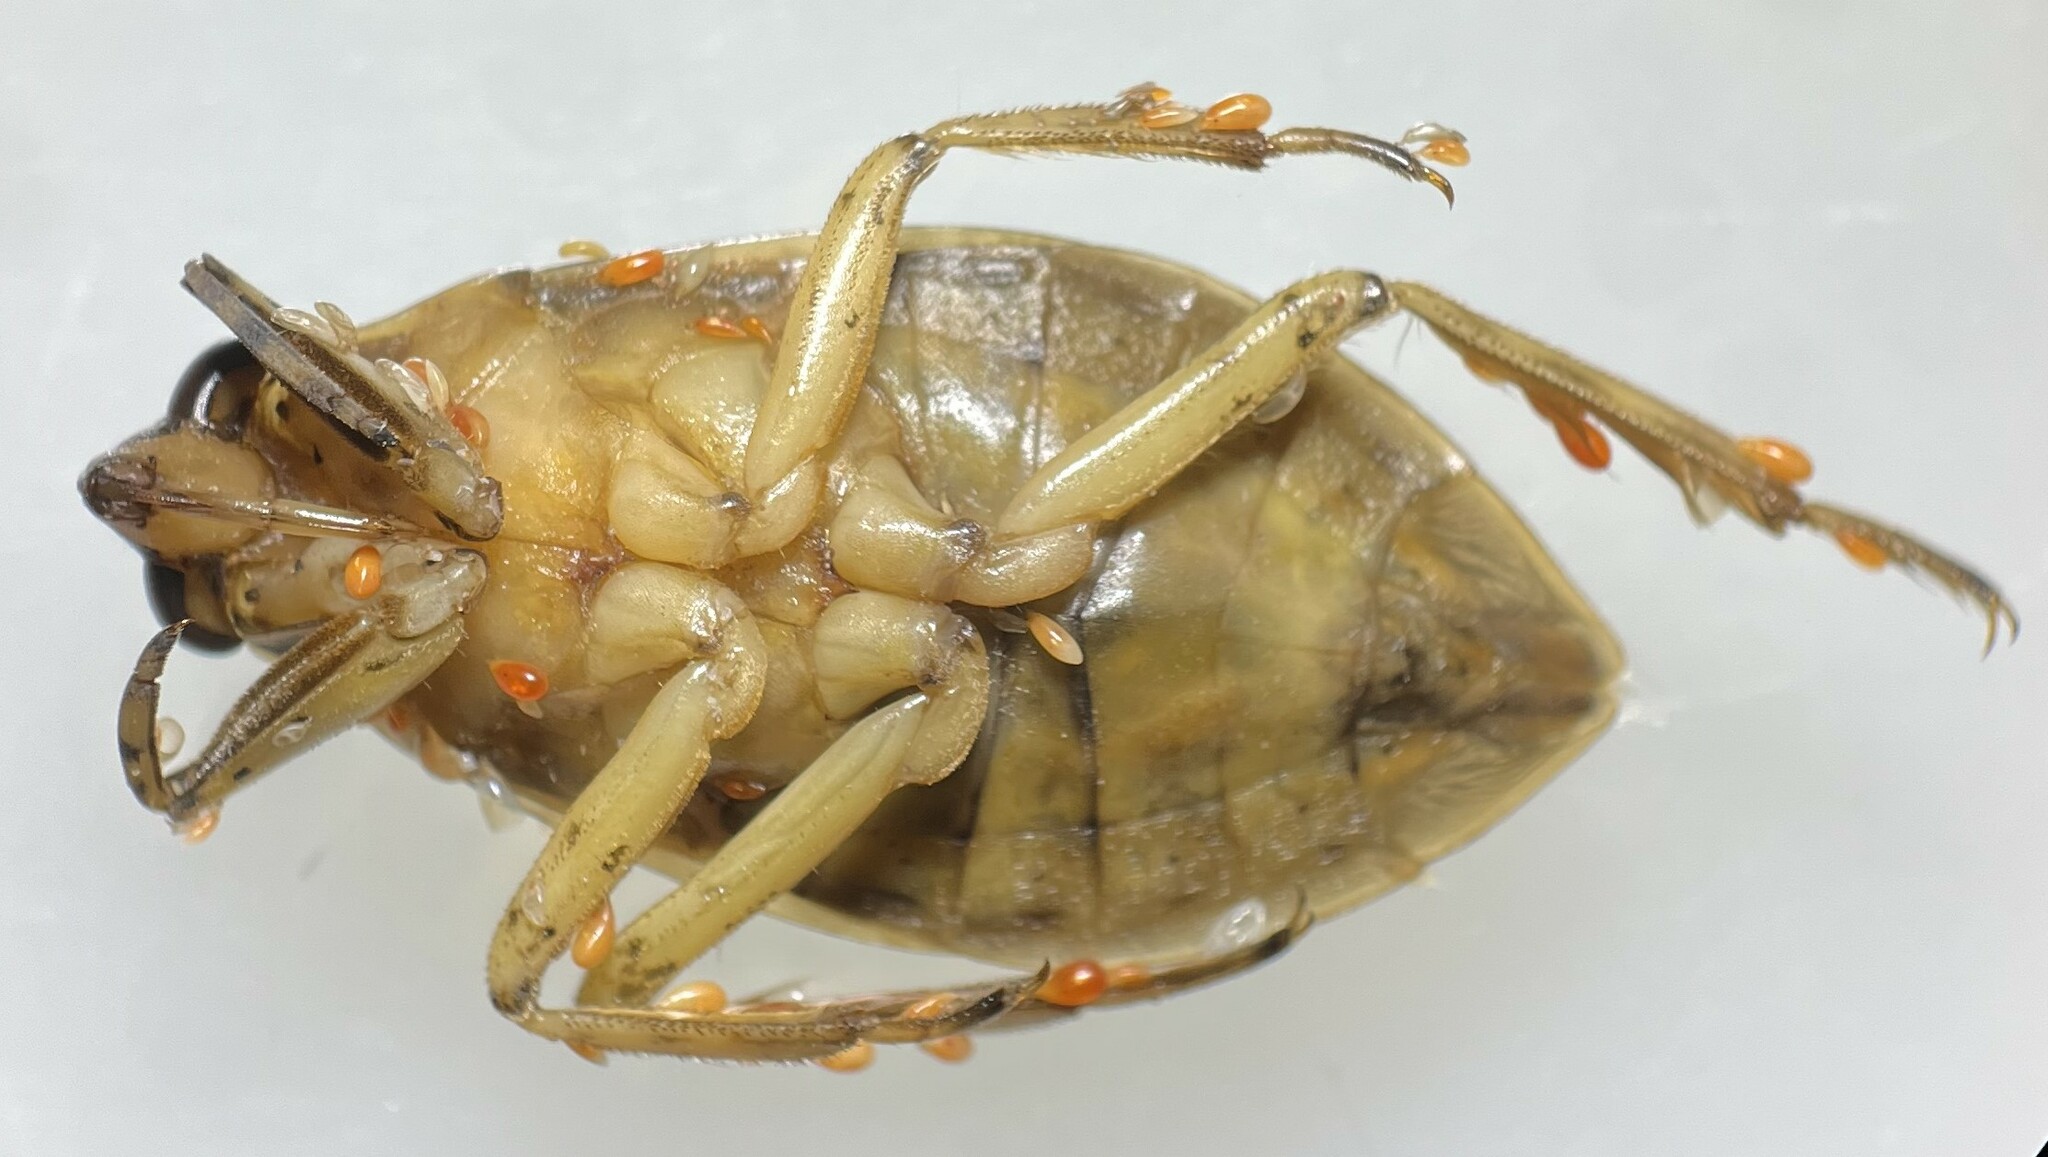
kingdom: Animalia
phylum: Arthropoda
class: Insecta
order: Hemiptera
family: Belostomatidae
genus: Belostoma
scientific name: Belostoma flumineum
